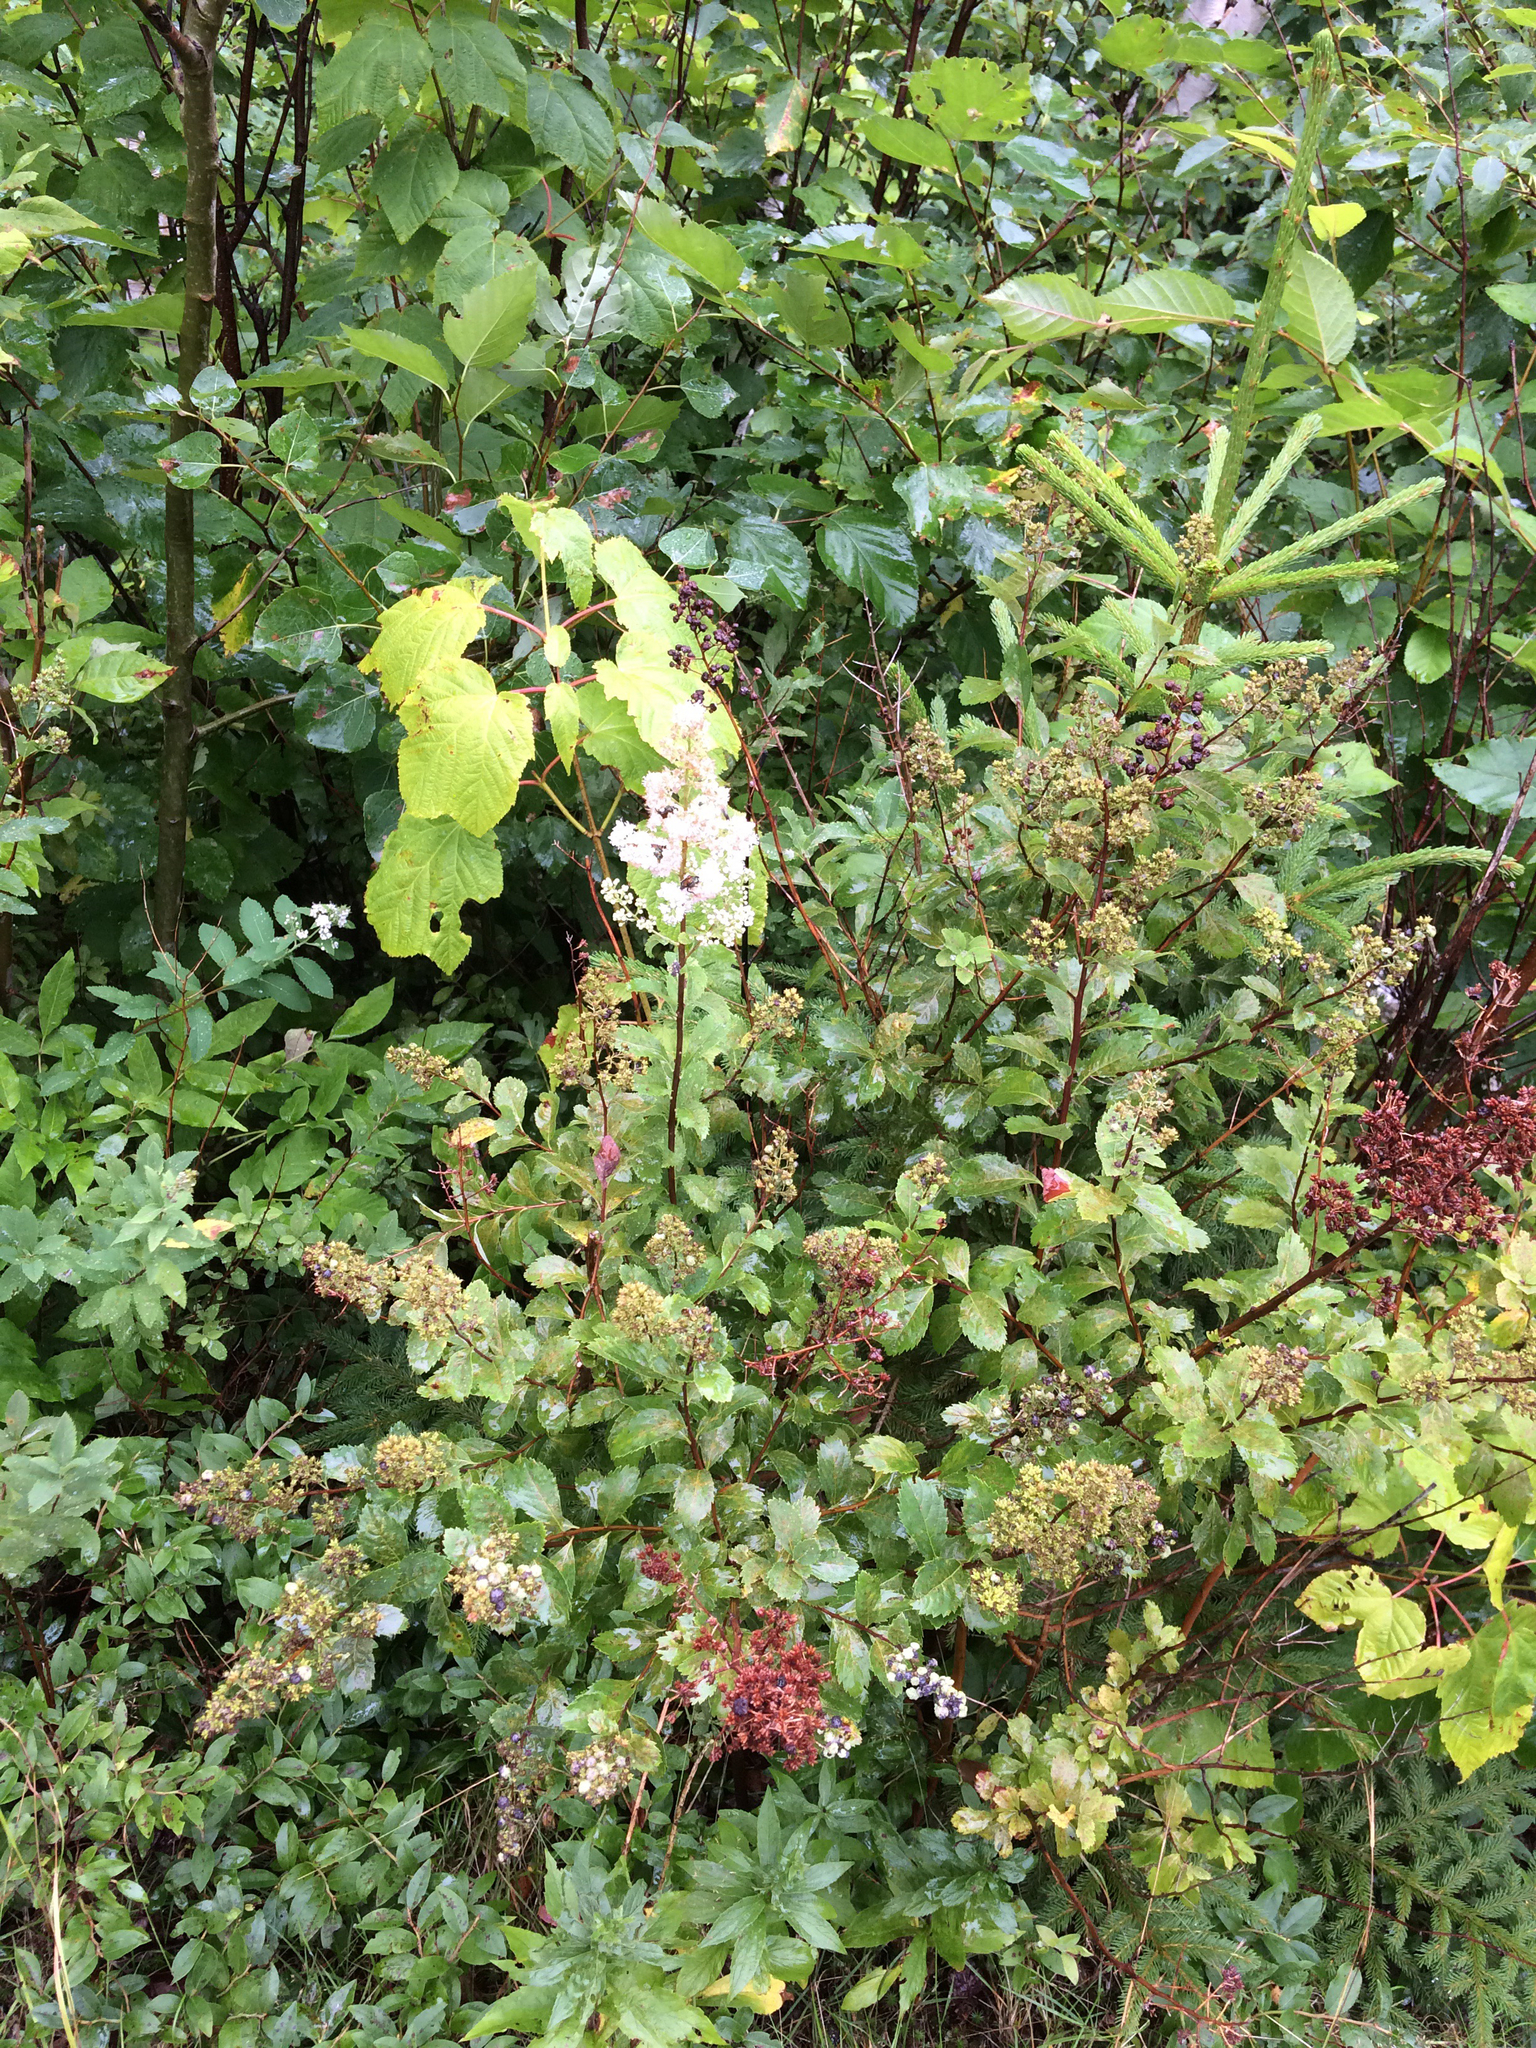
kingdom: Plantae
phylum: Tracheophyta
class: Magnoliopsida
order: Rosales
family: Rosaceae
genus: Spiraea
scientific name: Spiraea alba
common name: Pale bridewort
